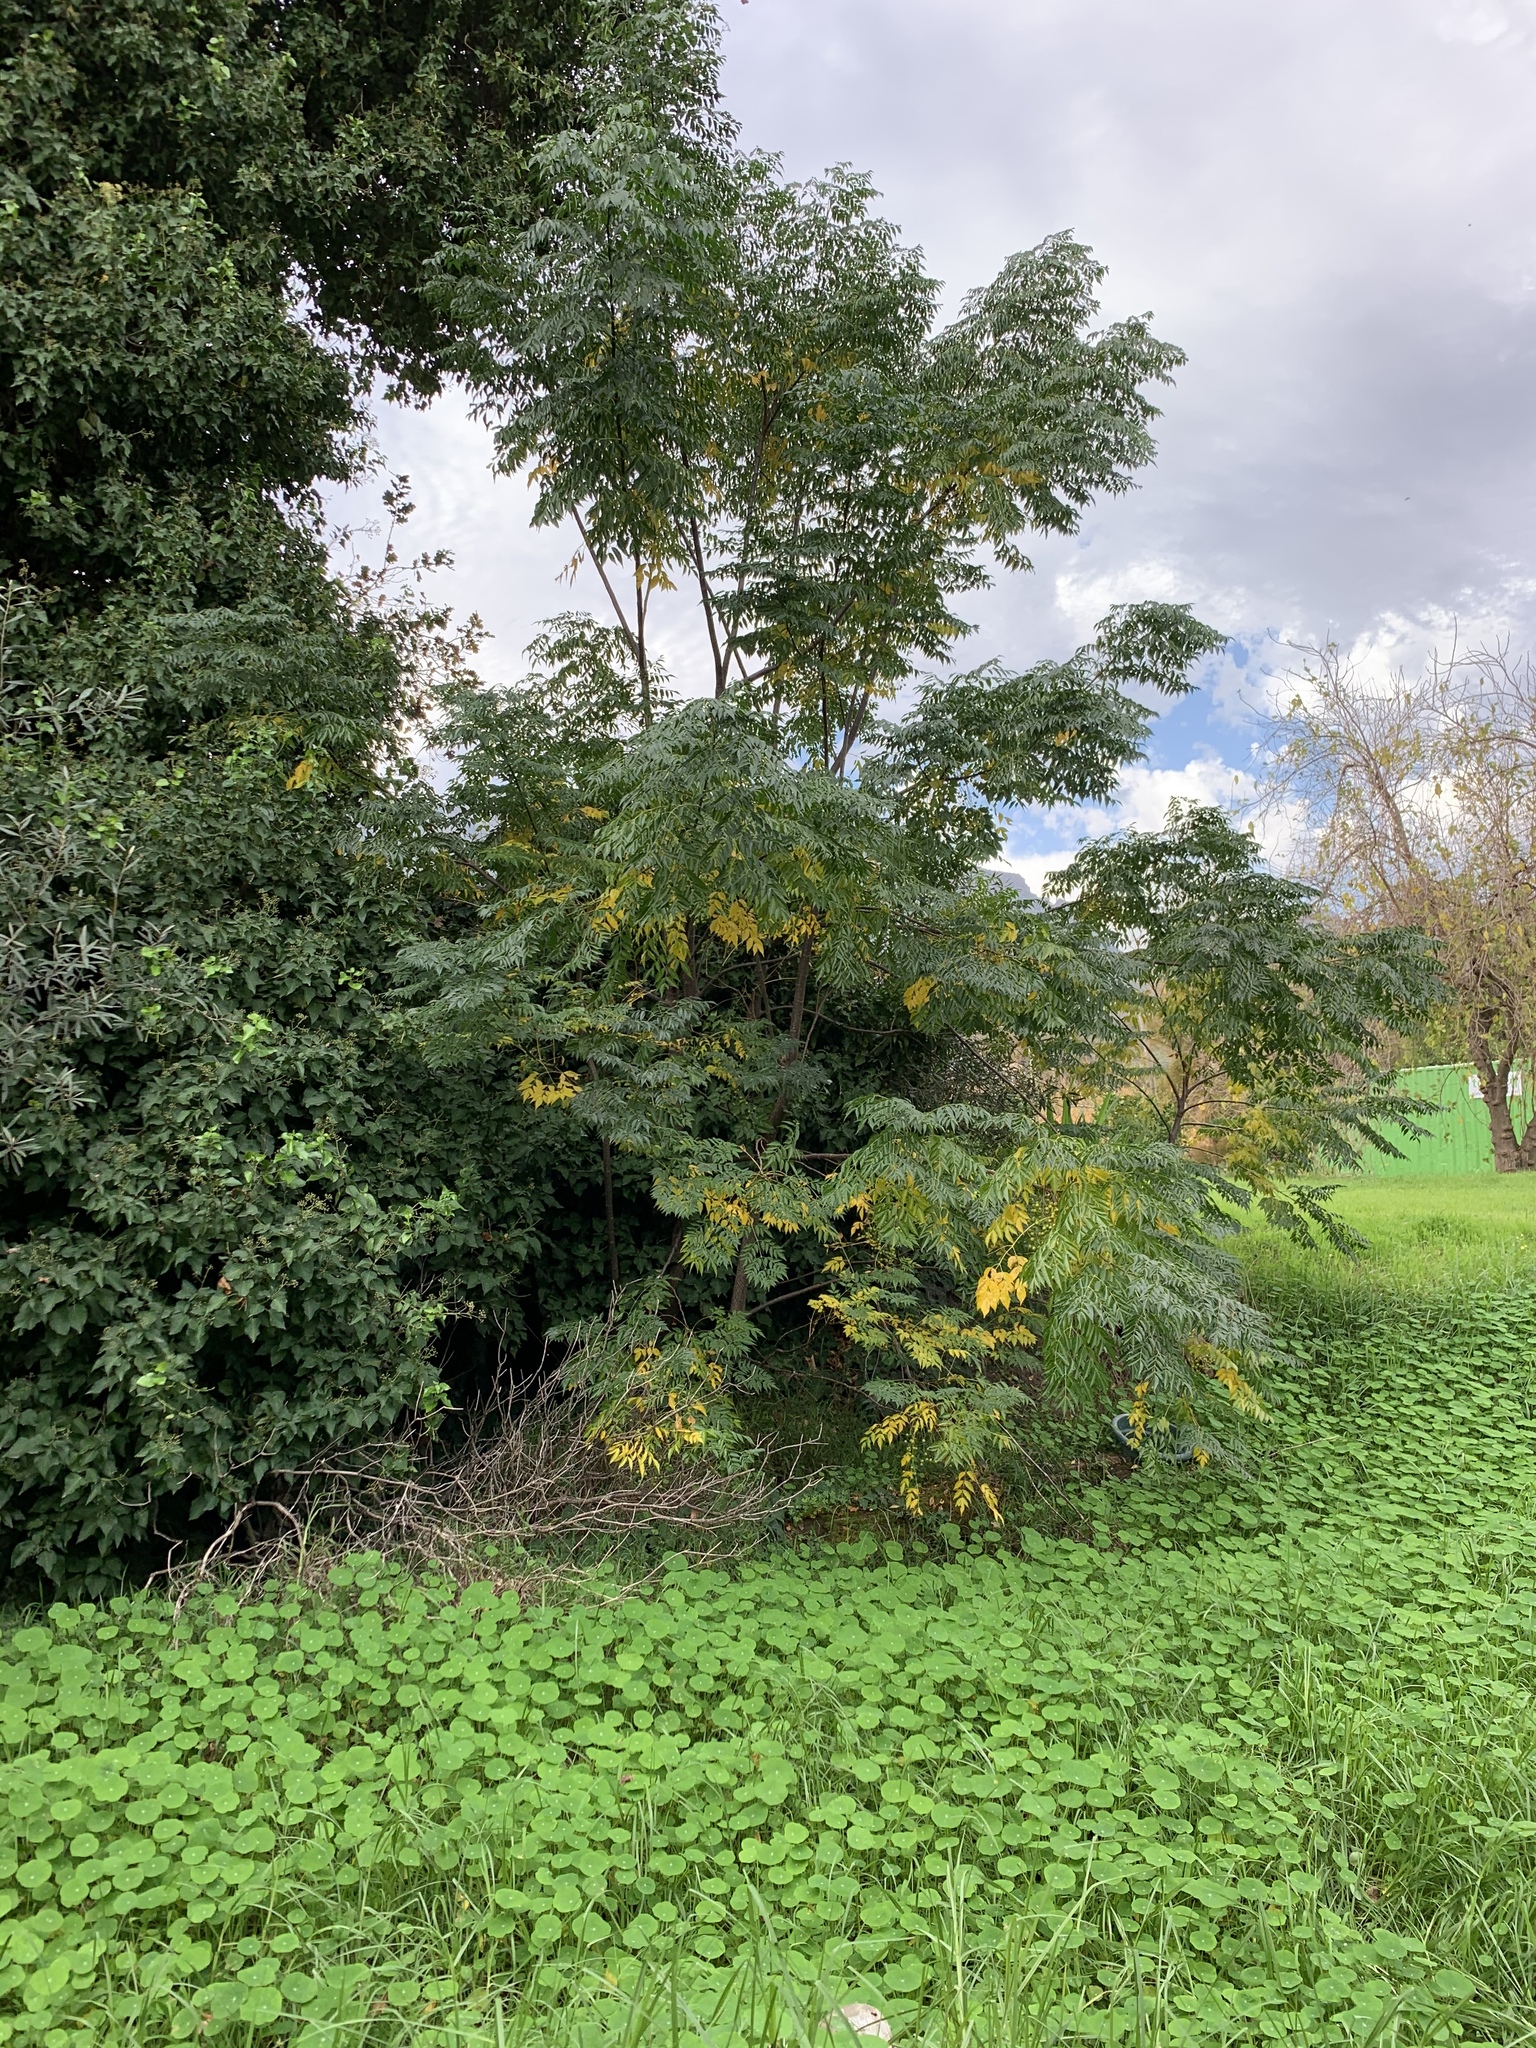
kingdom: Plantae
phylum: Tracheophyta
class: Magnoliopsida
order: Sapindales
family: Meliaceae
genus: Melia
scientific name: Melia azedarach
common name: Chinaberrytree
